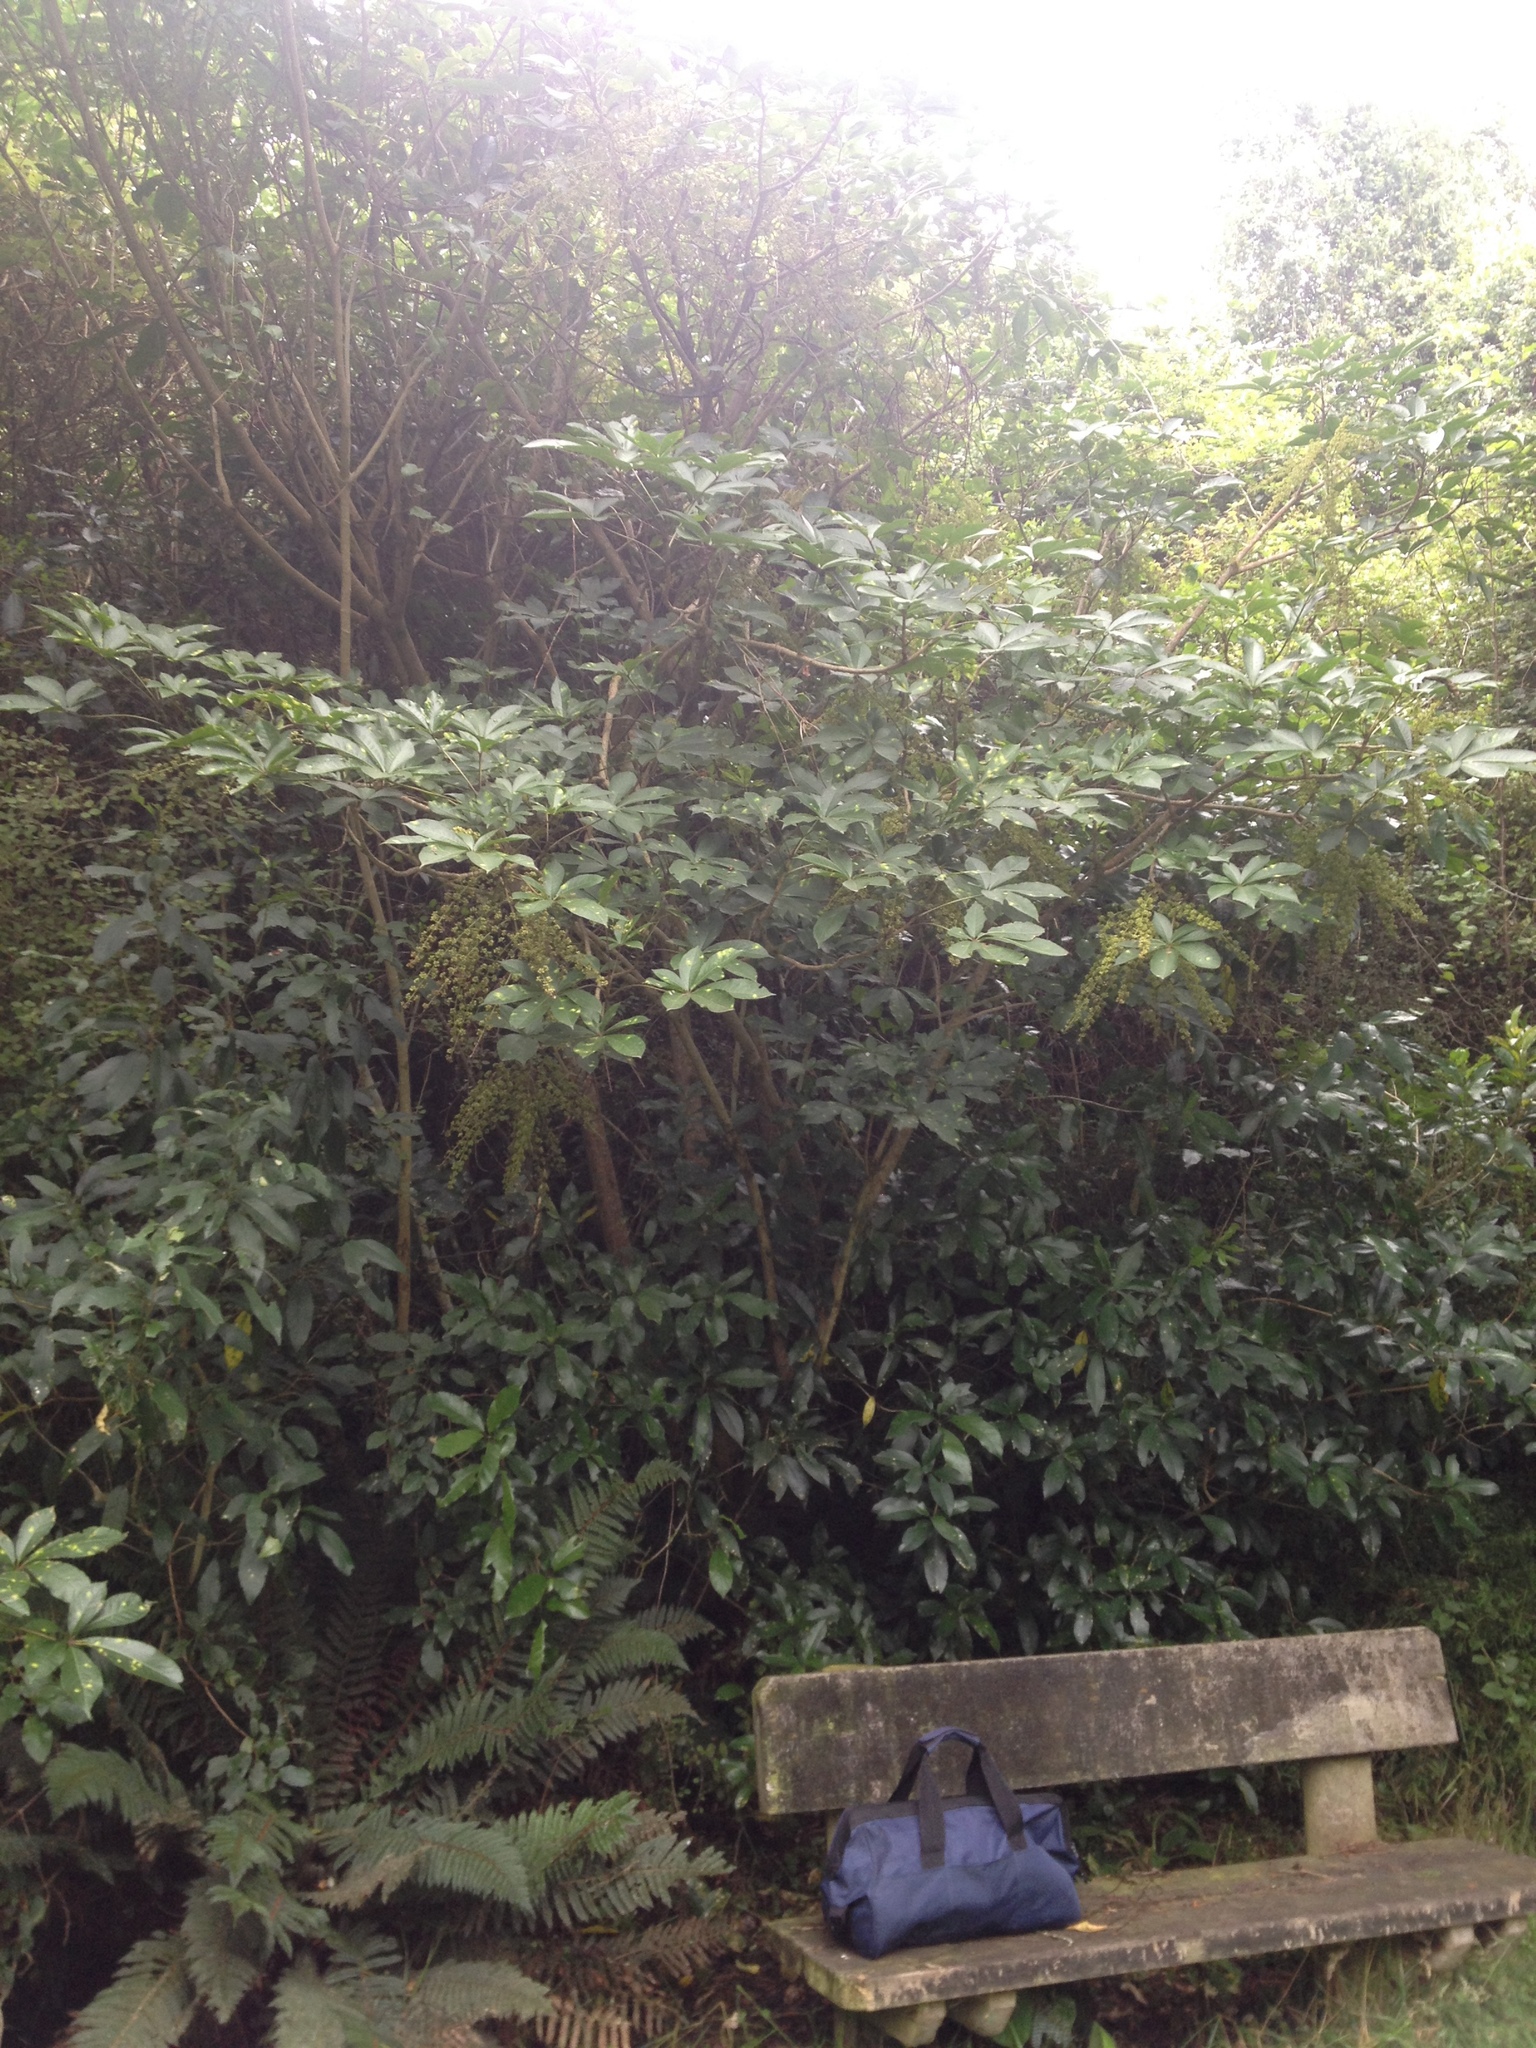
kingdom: Plantae
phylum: Tracheophyta
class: Magnoliopsida
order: Apiales
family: Araliaceae
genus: Schefflera
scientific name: Schefflera digitata
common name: Pate
